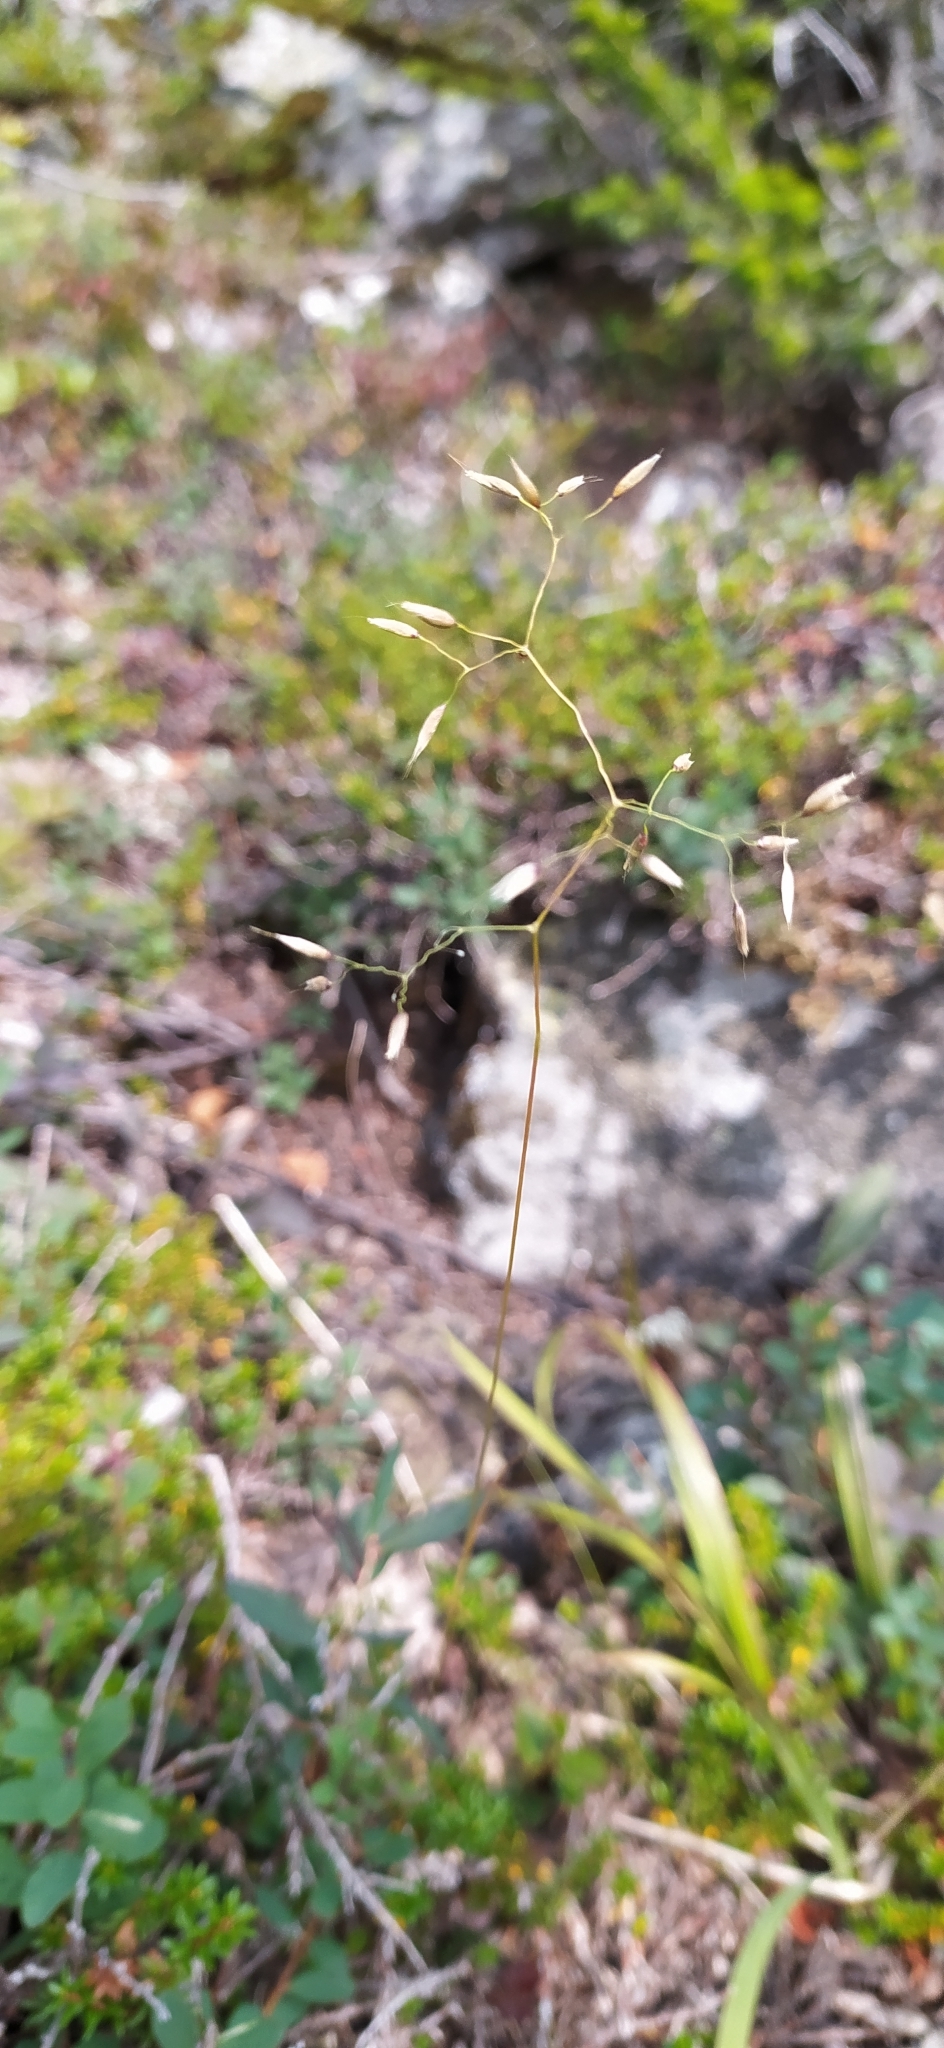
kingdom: Plantae
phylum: Tracheophyta
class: Liliopsida
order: Poales
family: Poaceae
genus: Avenella
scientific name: Avenella flexuosa
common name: Wavy hairgrass
